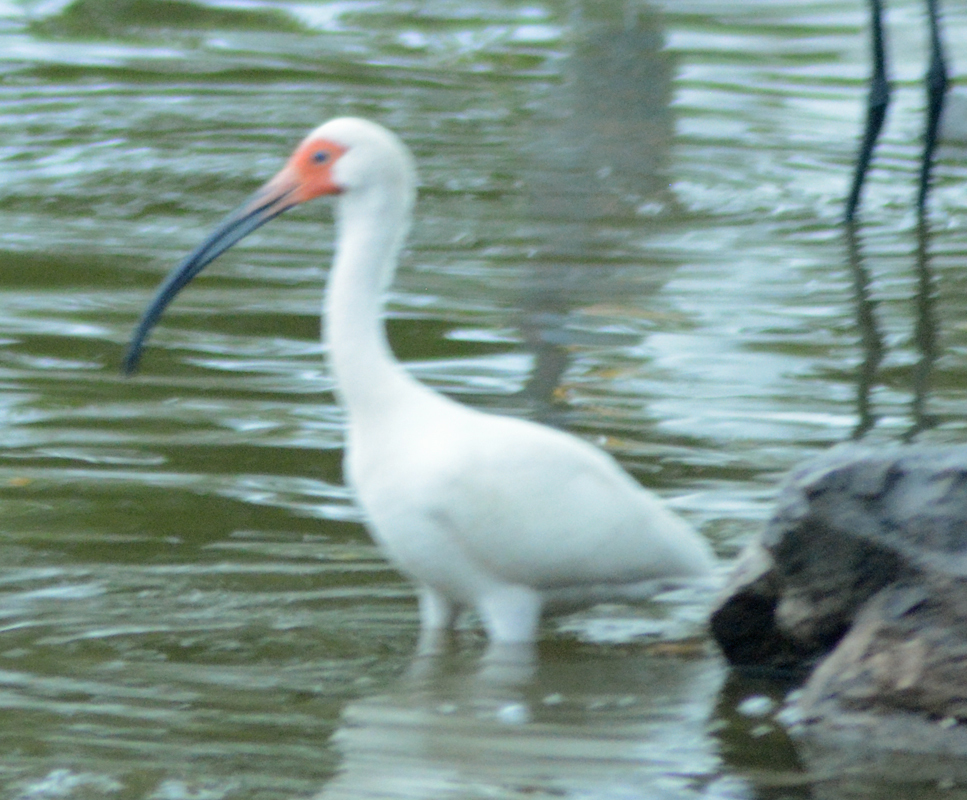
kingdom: Animalia
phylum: Chordata
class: Aves
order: Pelecaniformes
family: Threskiornithidae
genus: Eudocimus
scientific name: Eudocimus albus
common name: White ibis
